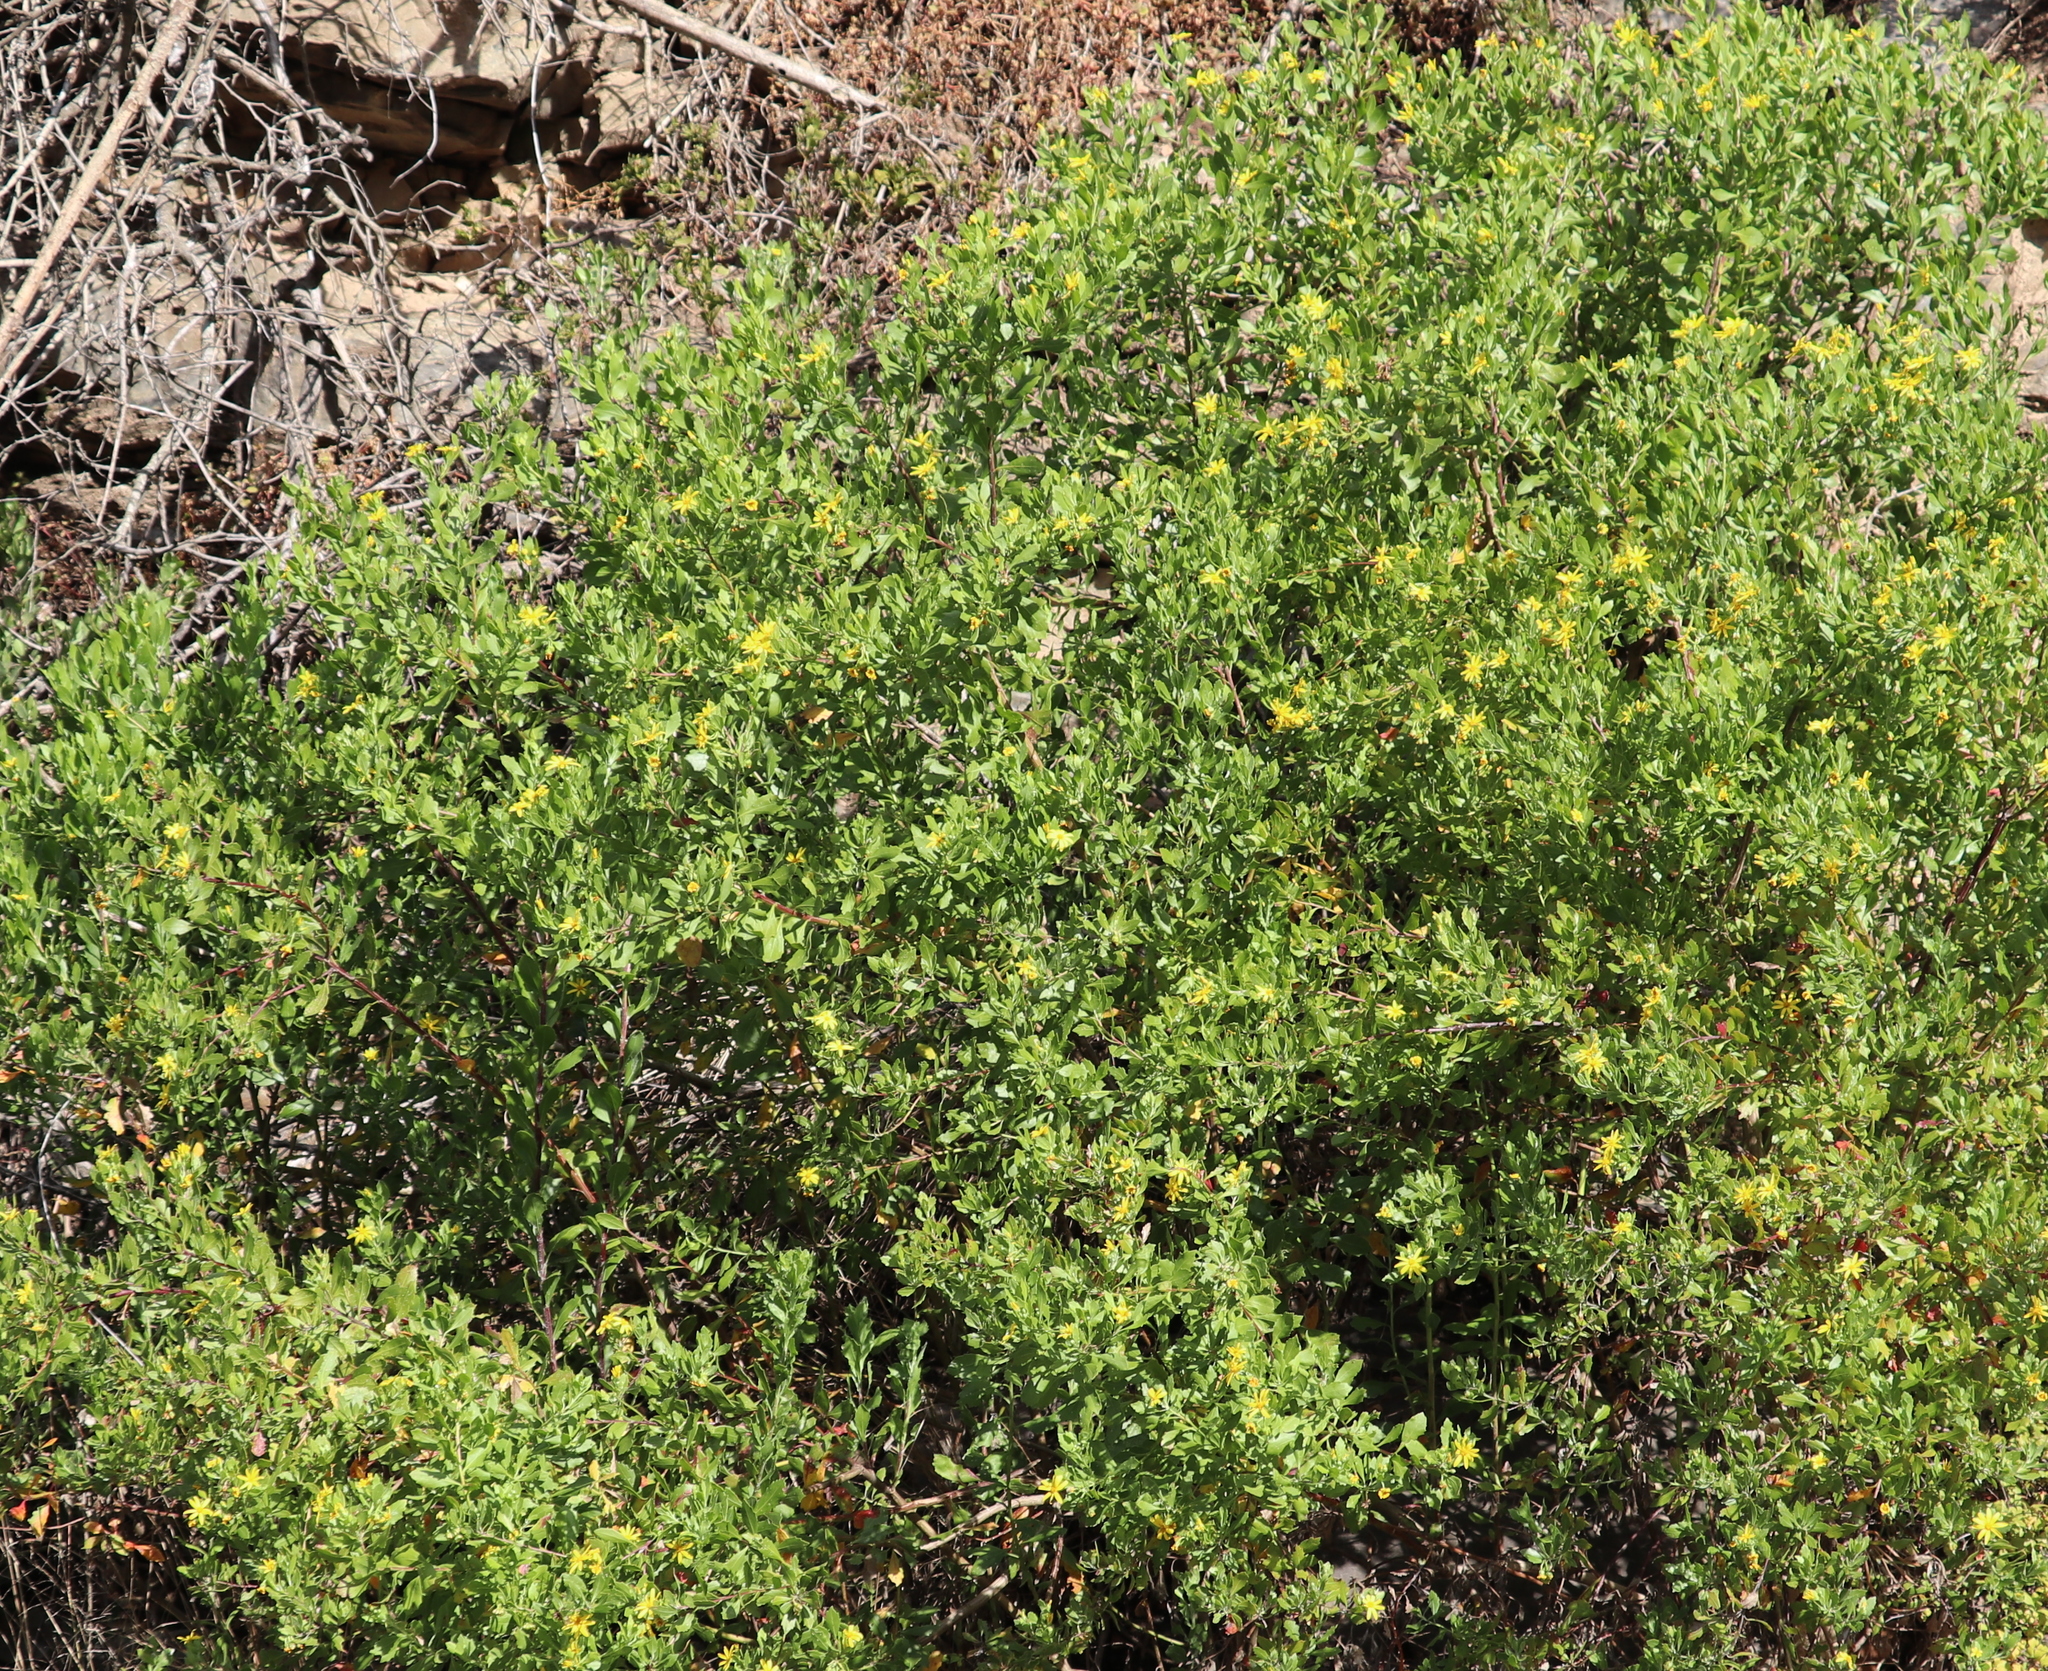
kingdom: Plantae
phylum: Tracheophyta
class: Magnoliopsida
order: Asterales
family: Asteraceae
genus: Osteospermum
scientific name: Osteospermum moniliferum
